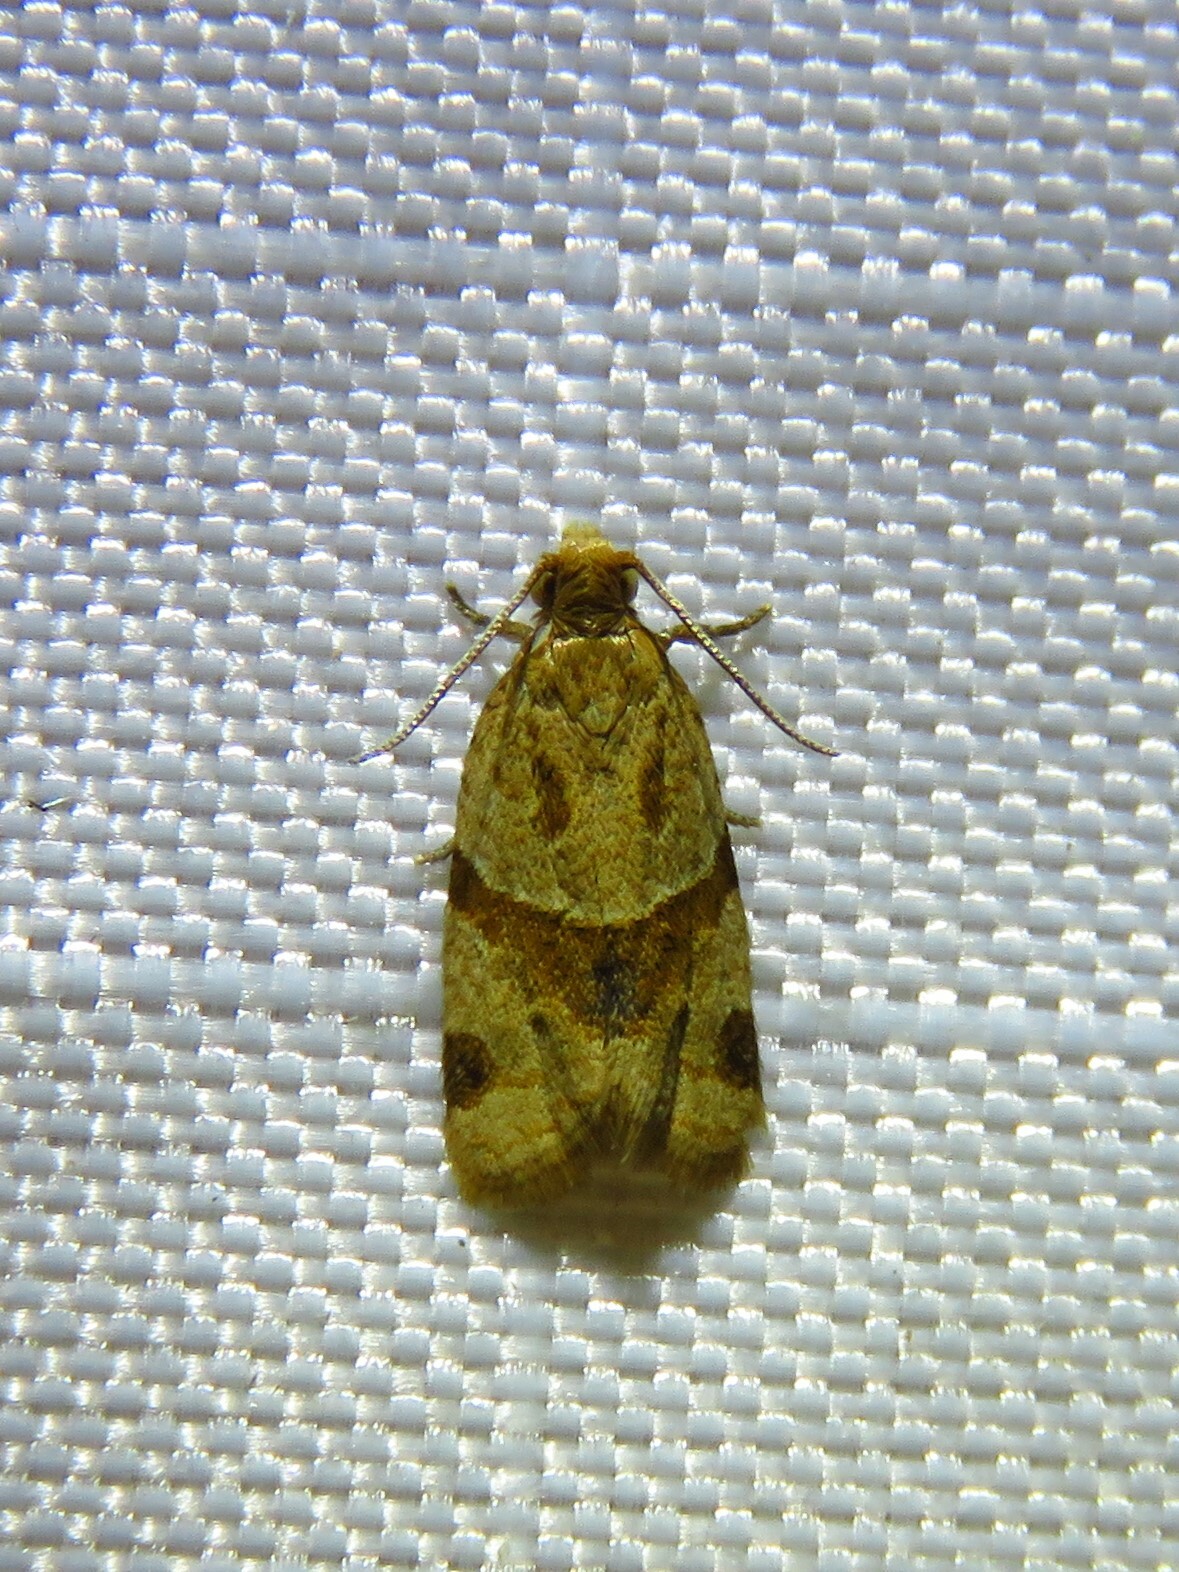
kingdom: Animalia
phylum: Arthropoda
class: Insecta
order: Lepidoptera
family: Tortricidae
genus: Clepsis
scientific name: Clepsis peritana
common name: Garden tortrix
